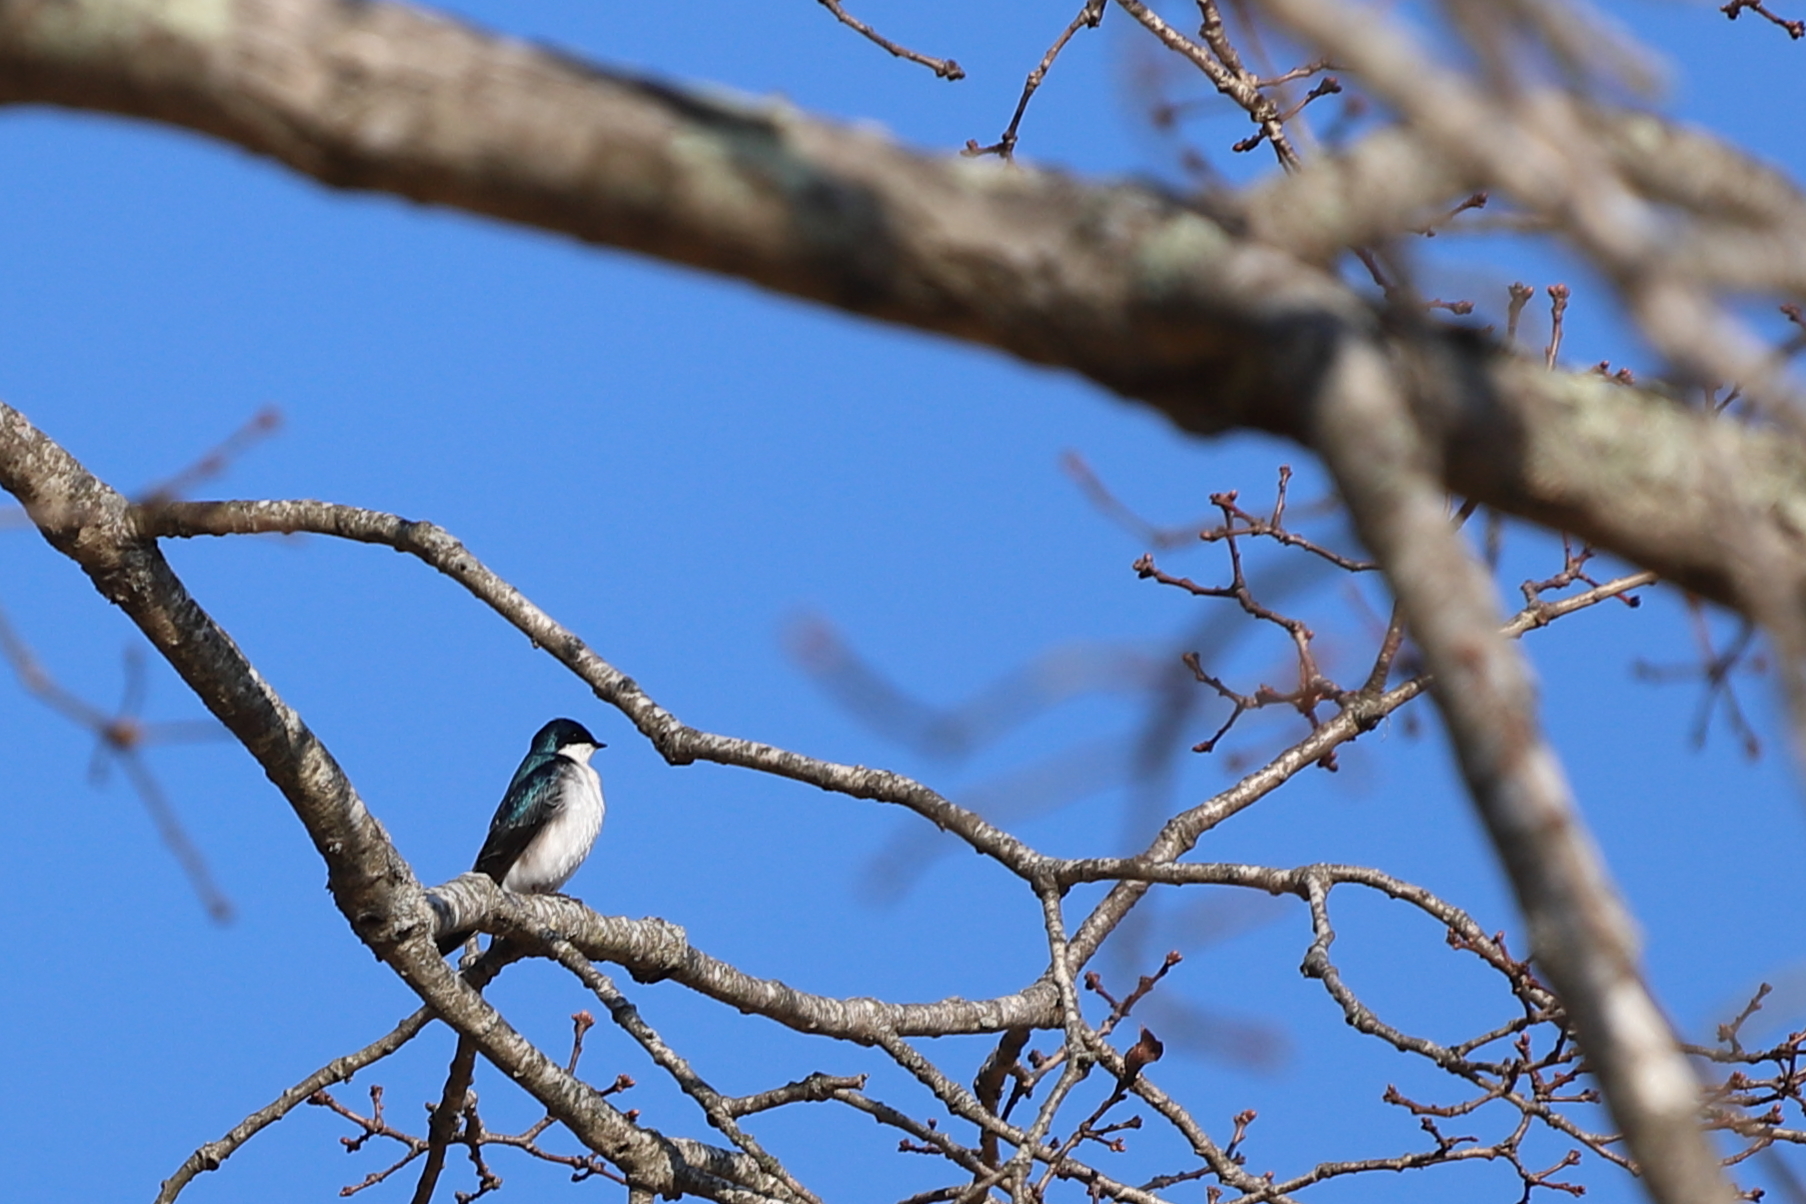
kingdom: Animalia
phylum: Chordata
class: Aves
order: Passeriformes
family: Hirundinidae
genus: Tachycineta
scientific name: Tachycineta bicolor
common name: Tree swallow
